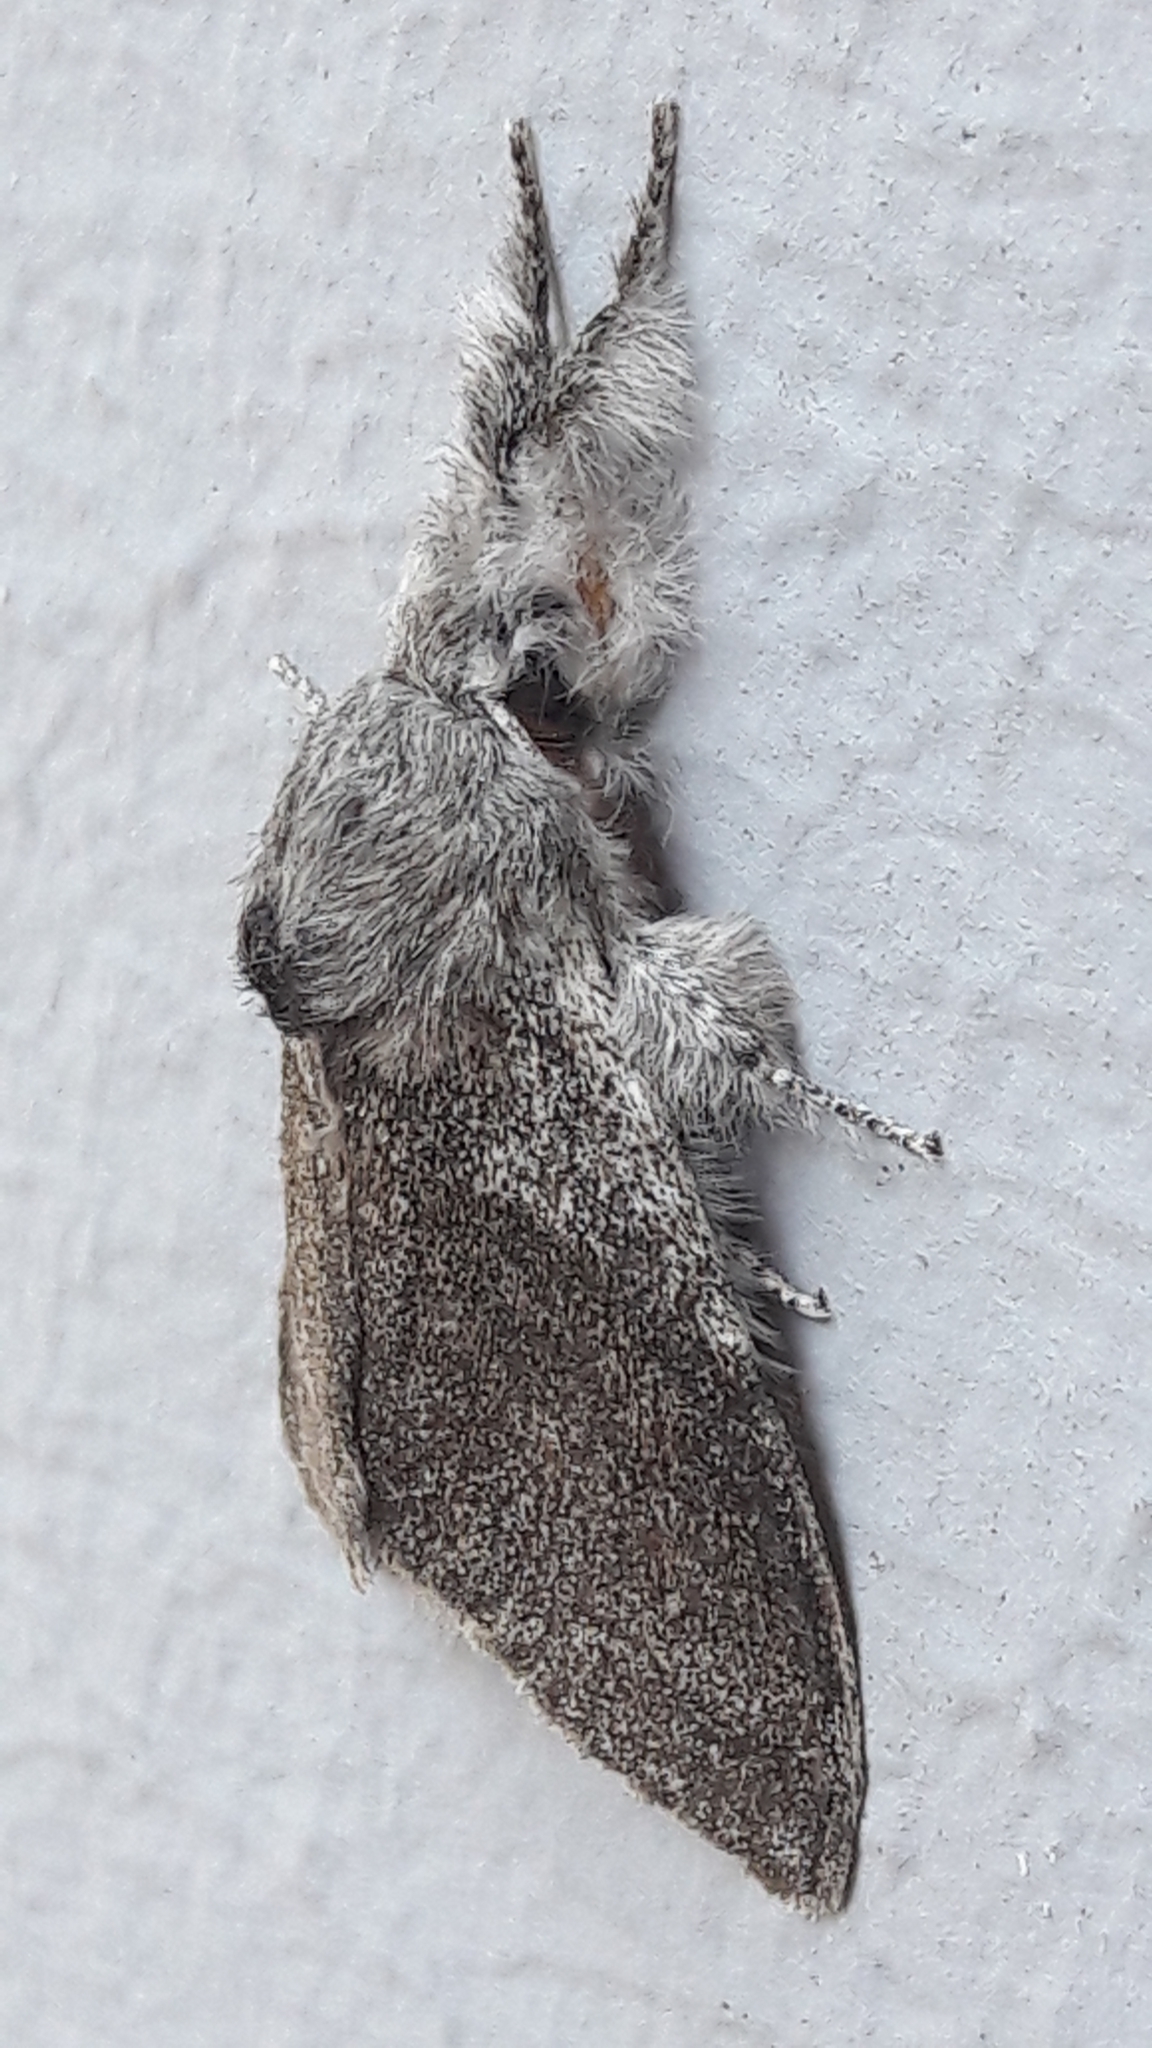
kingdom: Animalia
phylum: Arthropoda
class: Insecta
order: Lepidoptera
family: Erebidae
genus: Calliteara
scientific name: Calliteara pudibunda
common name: Pale tussock
